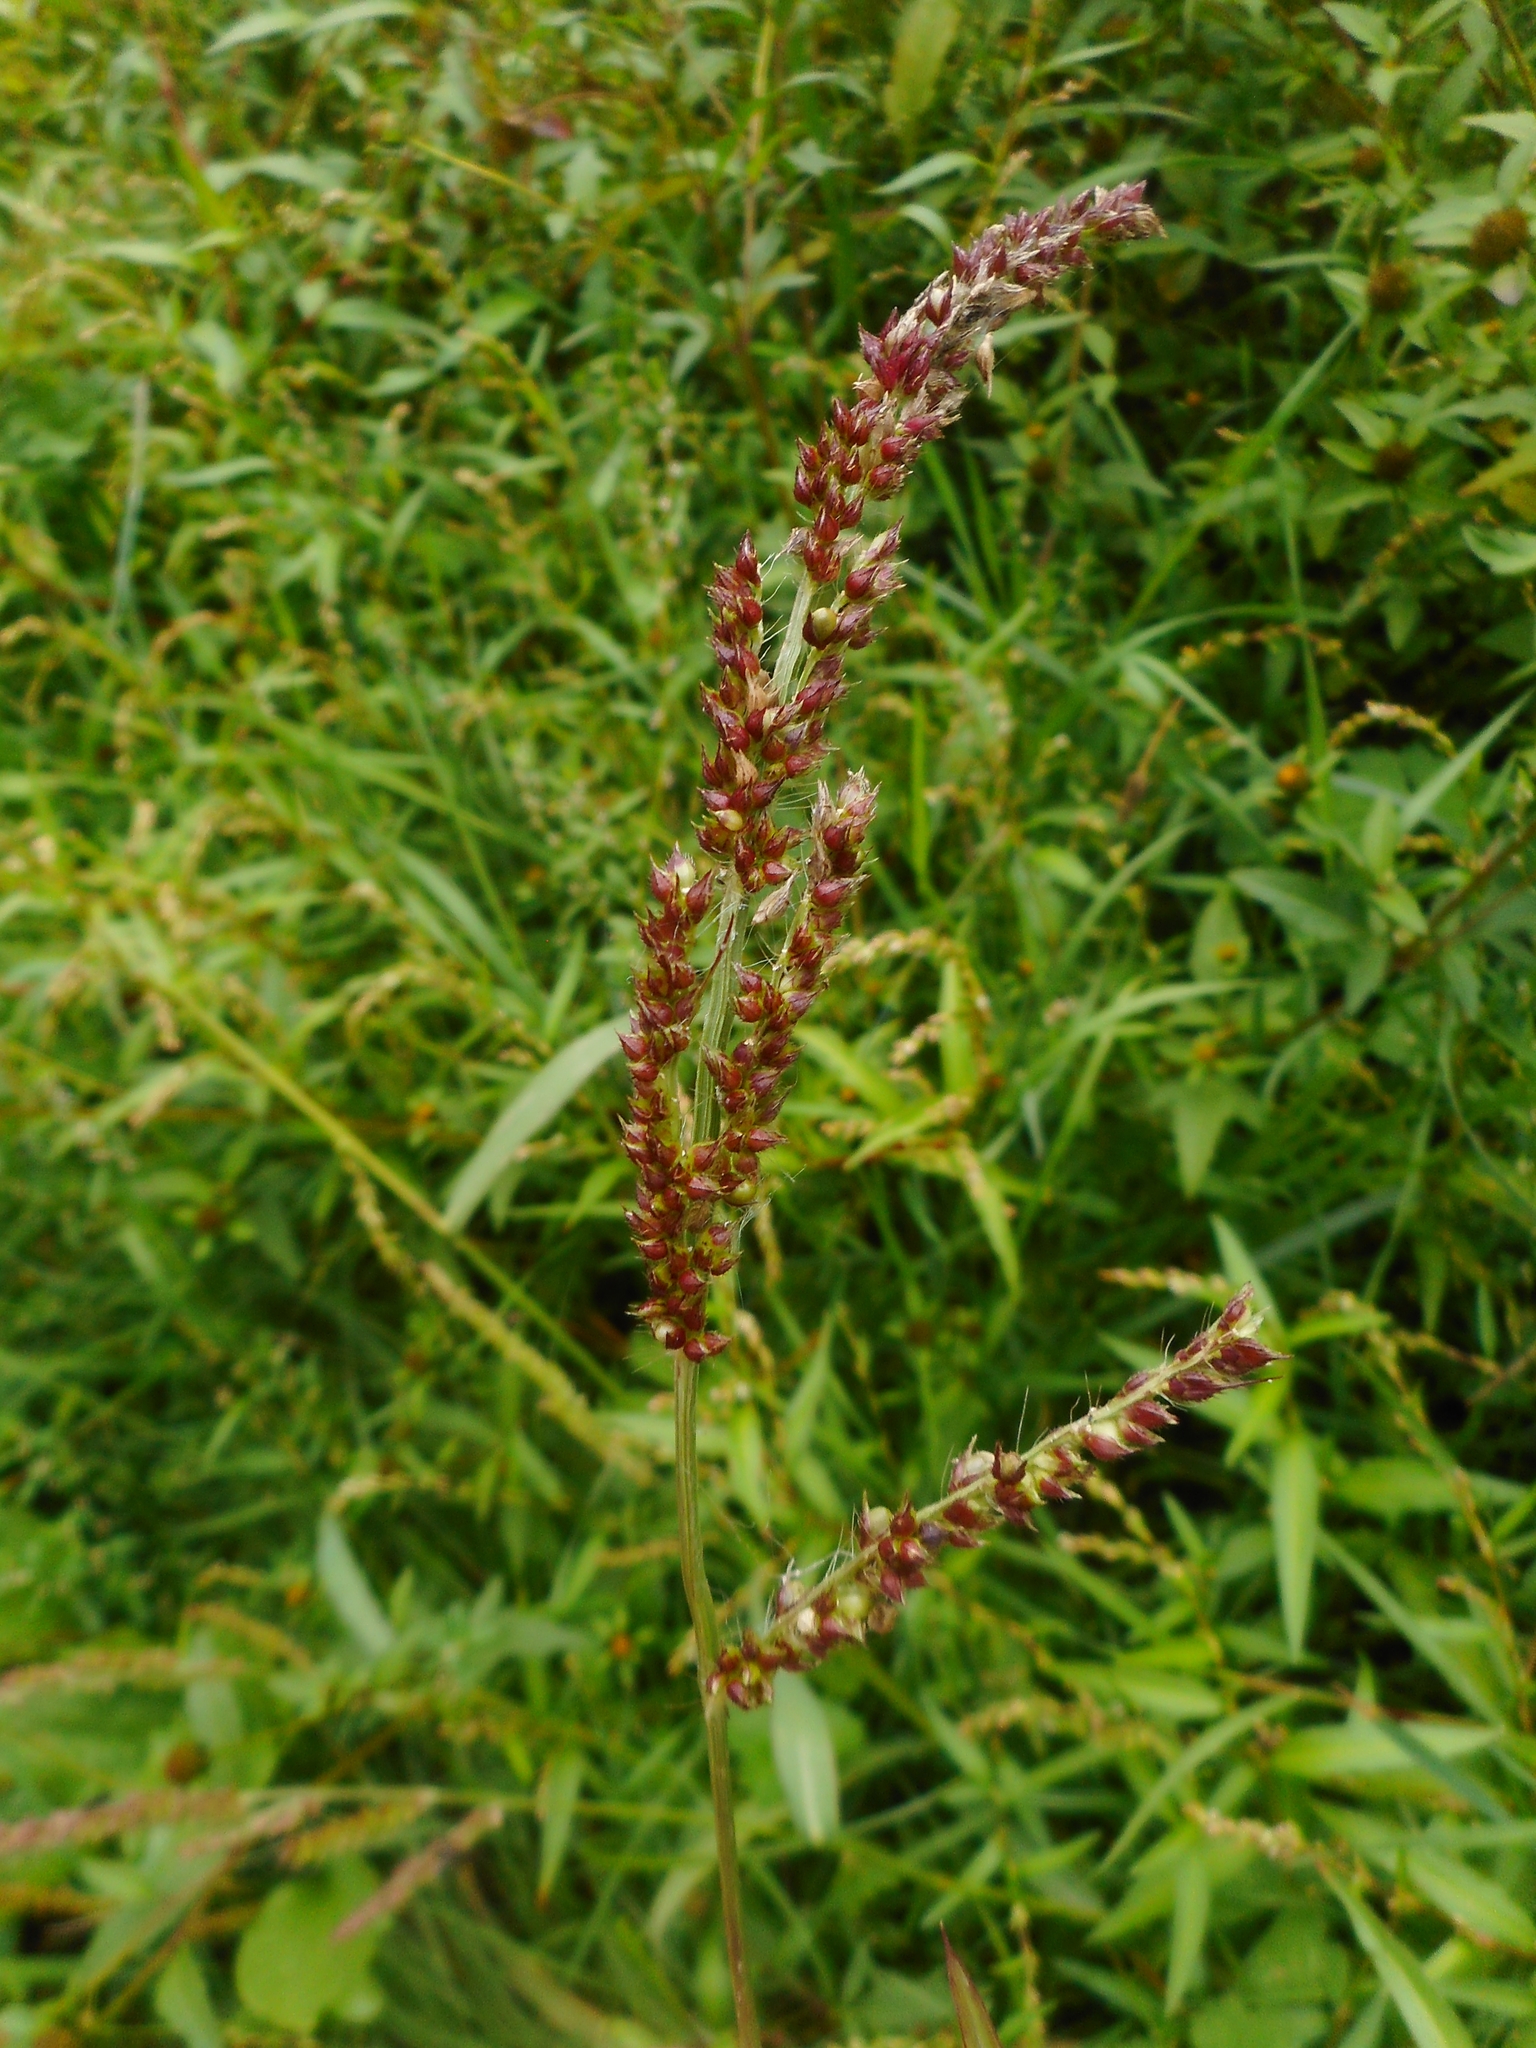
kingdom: Plantae
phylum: Tracheophyta
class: Liliopsida
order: Poales
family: Poaceae
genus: Echinochloa
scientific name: Echinochloa crus-galli
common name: Cockspur
